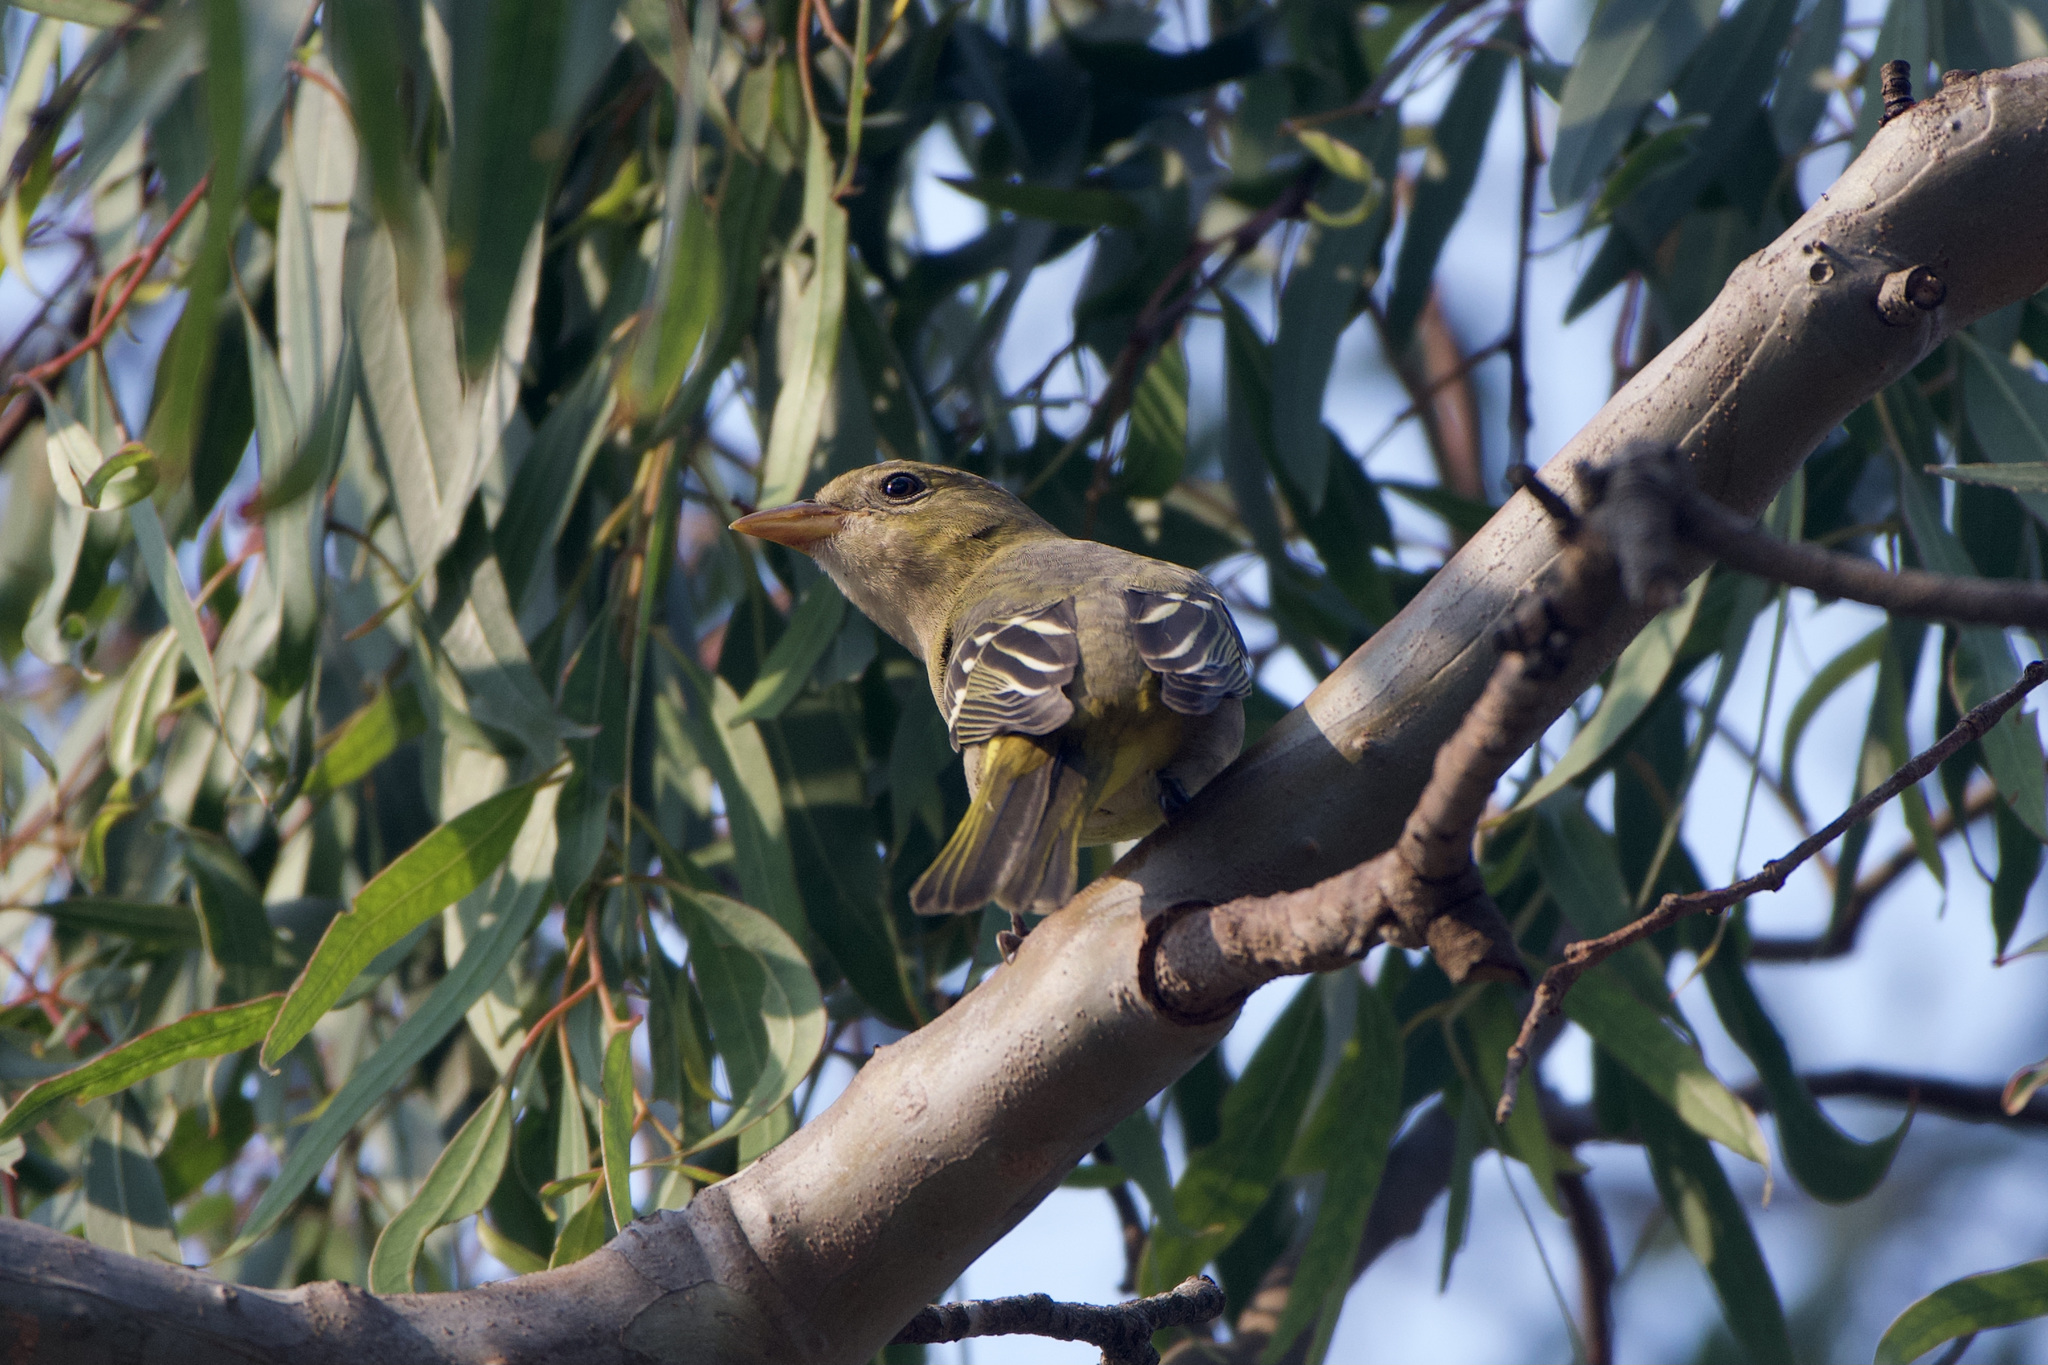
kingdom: Animalia
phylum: Chordata
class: Aves
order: Passeriformes
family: Cardinalidae
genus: Piranga
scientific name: Piranga ludoviciana
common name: Western tanager
